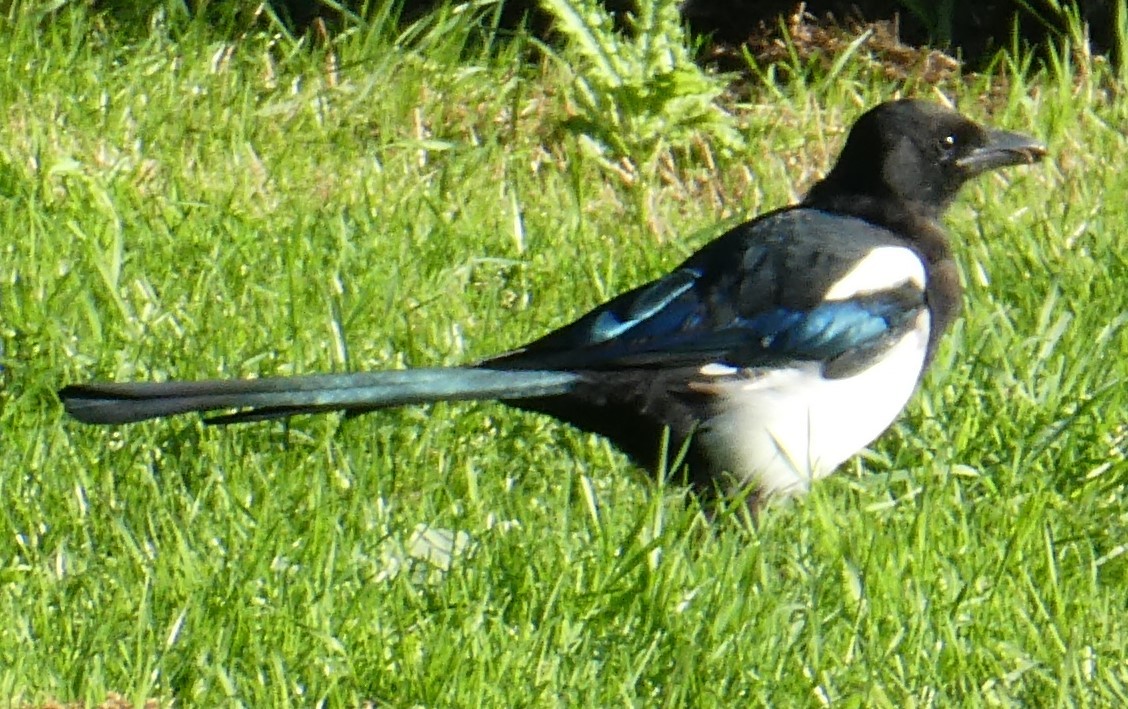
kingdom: Animalia
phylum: Chordata
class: Aves
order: Passeriformes
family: Corvidae
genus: Pica
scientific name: Pica pica
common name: Eurasian magpie
